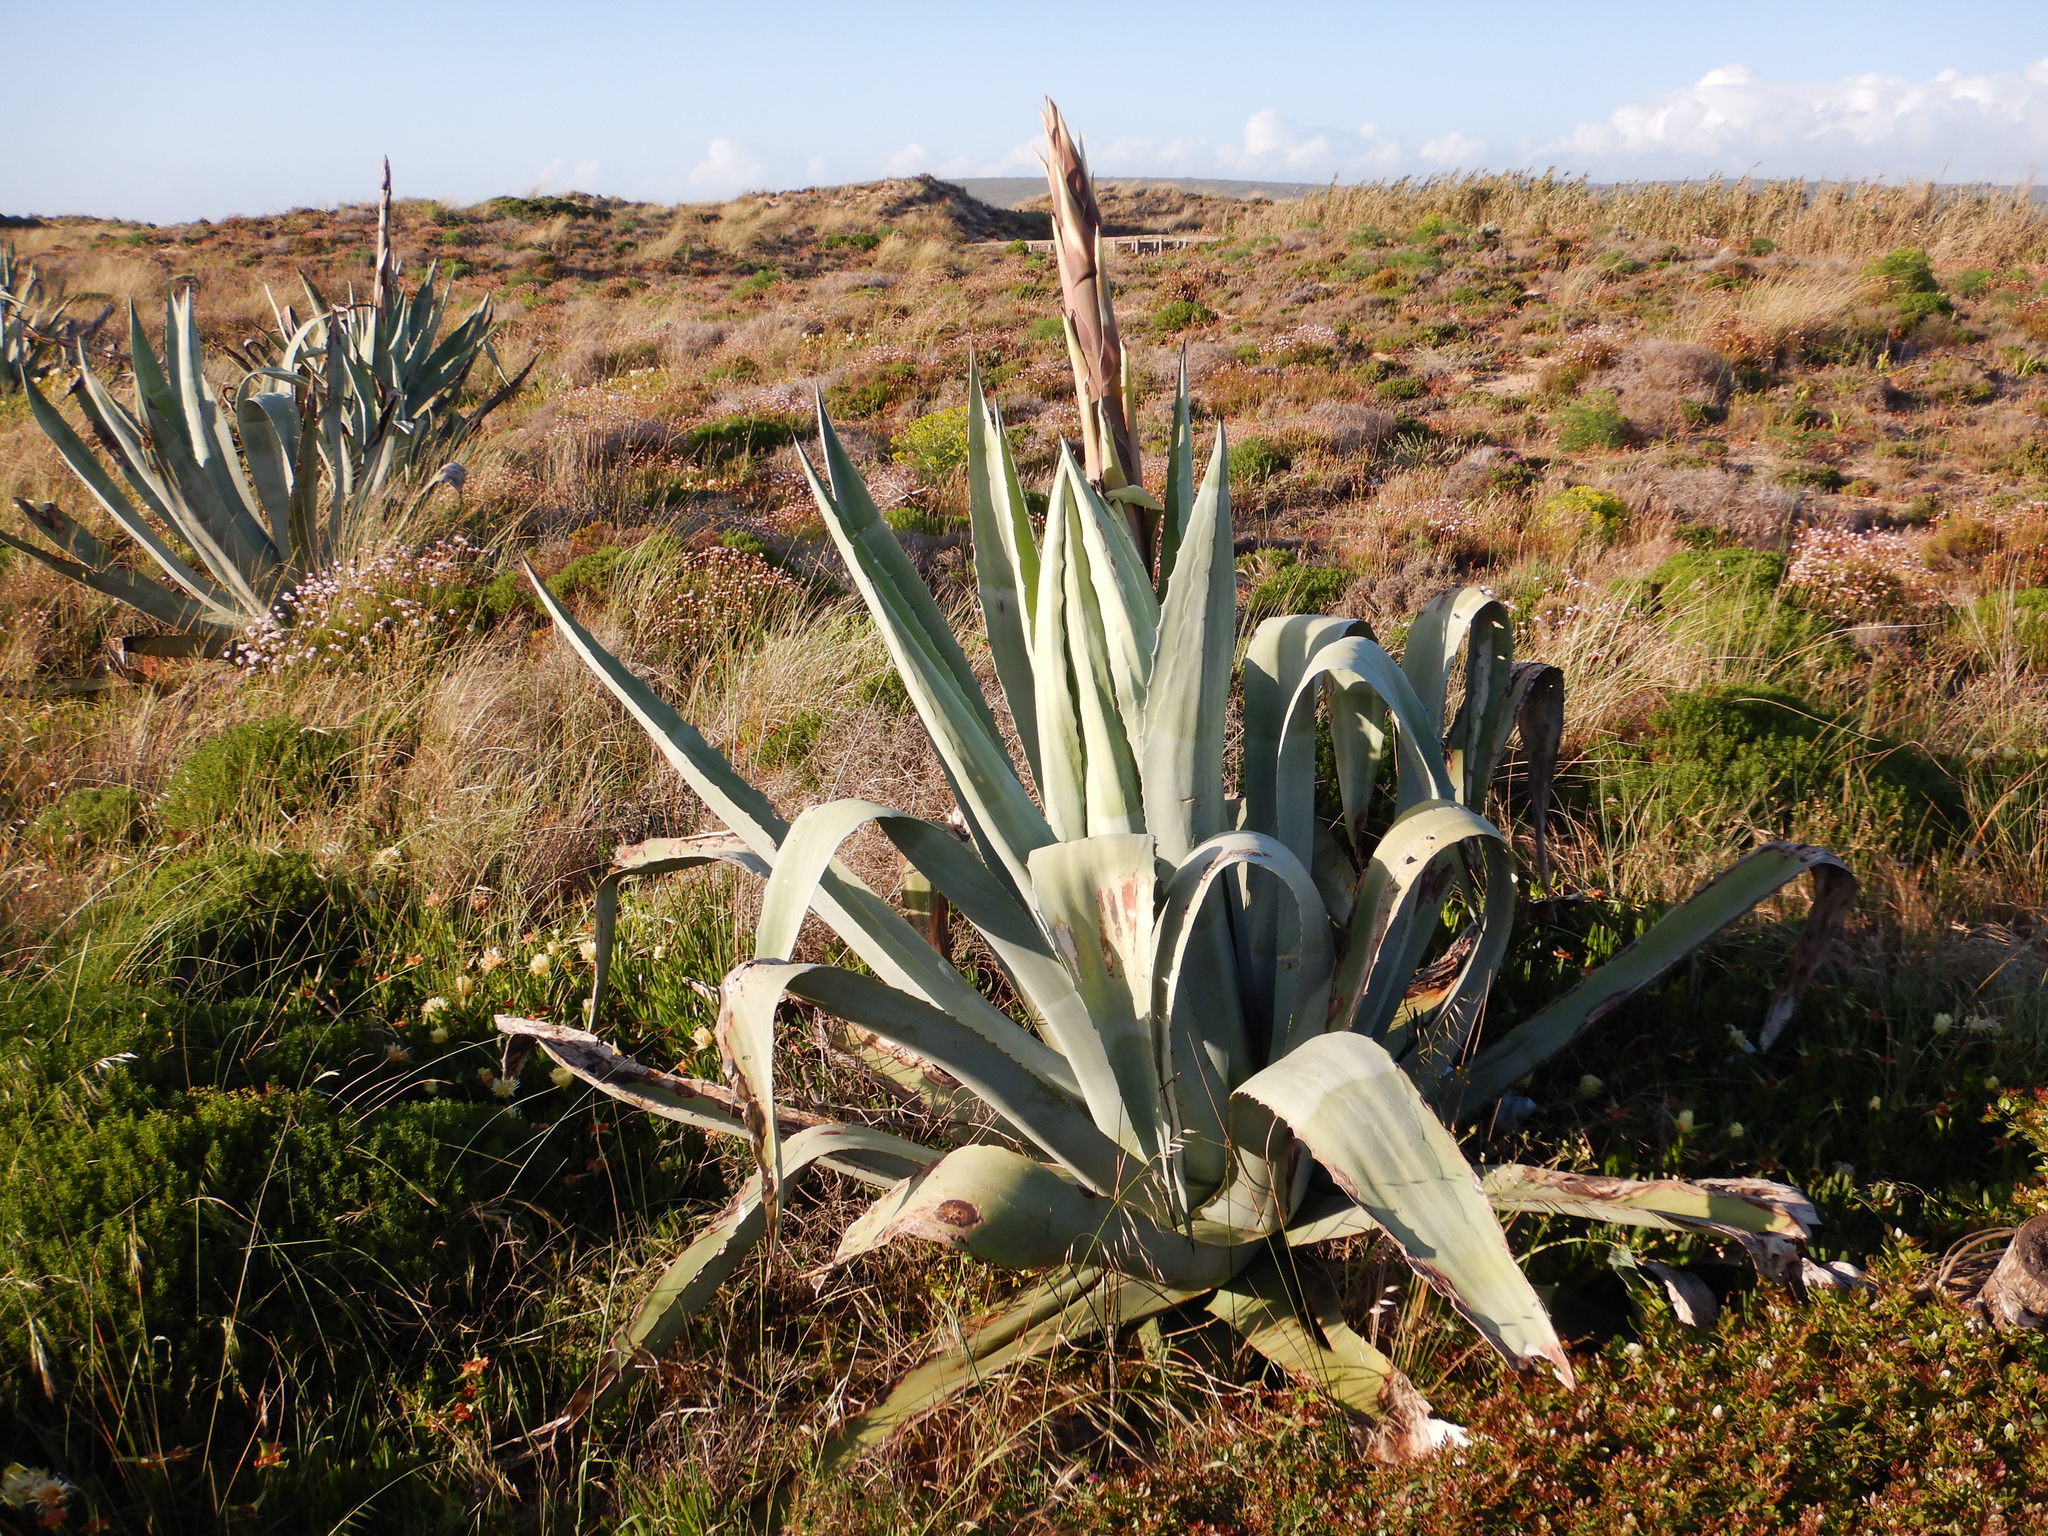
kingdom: Plantae
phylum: Tracheophyta
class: Liliopsida
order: Asparagales
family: Asparagaceae
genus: Agave
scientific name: Agave americana
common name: Centuryplant
